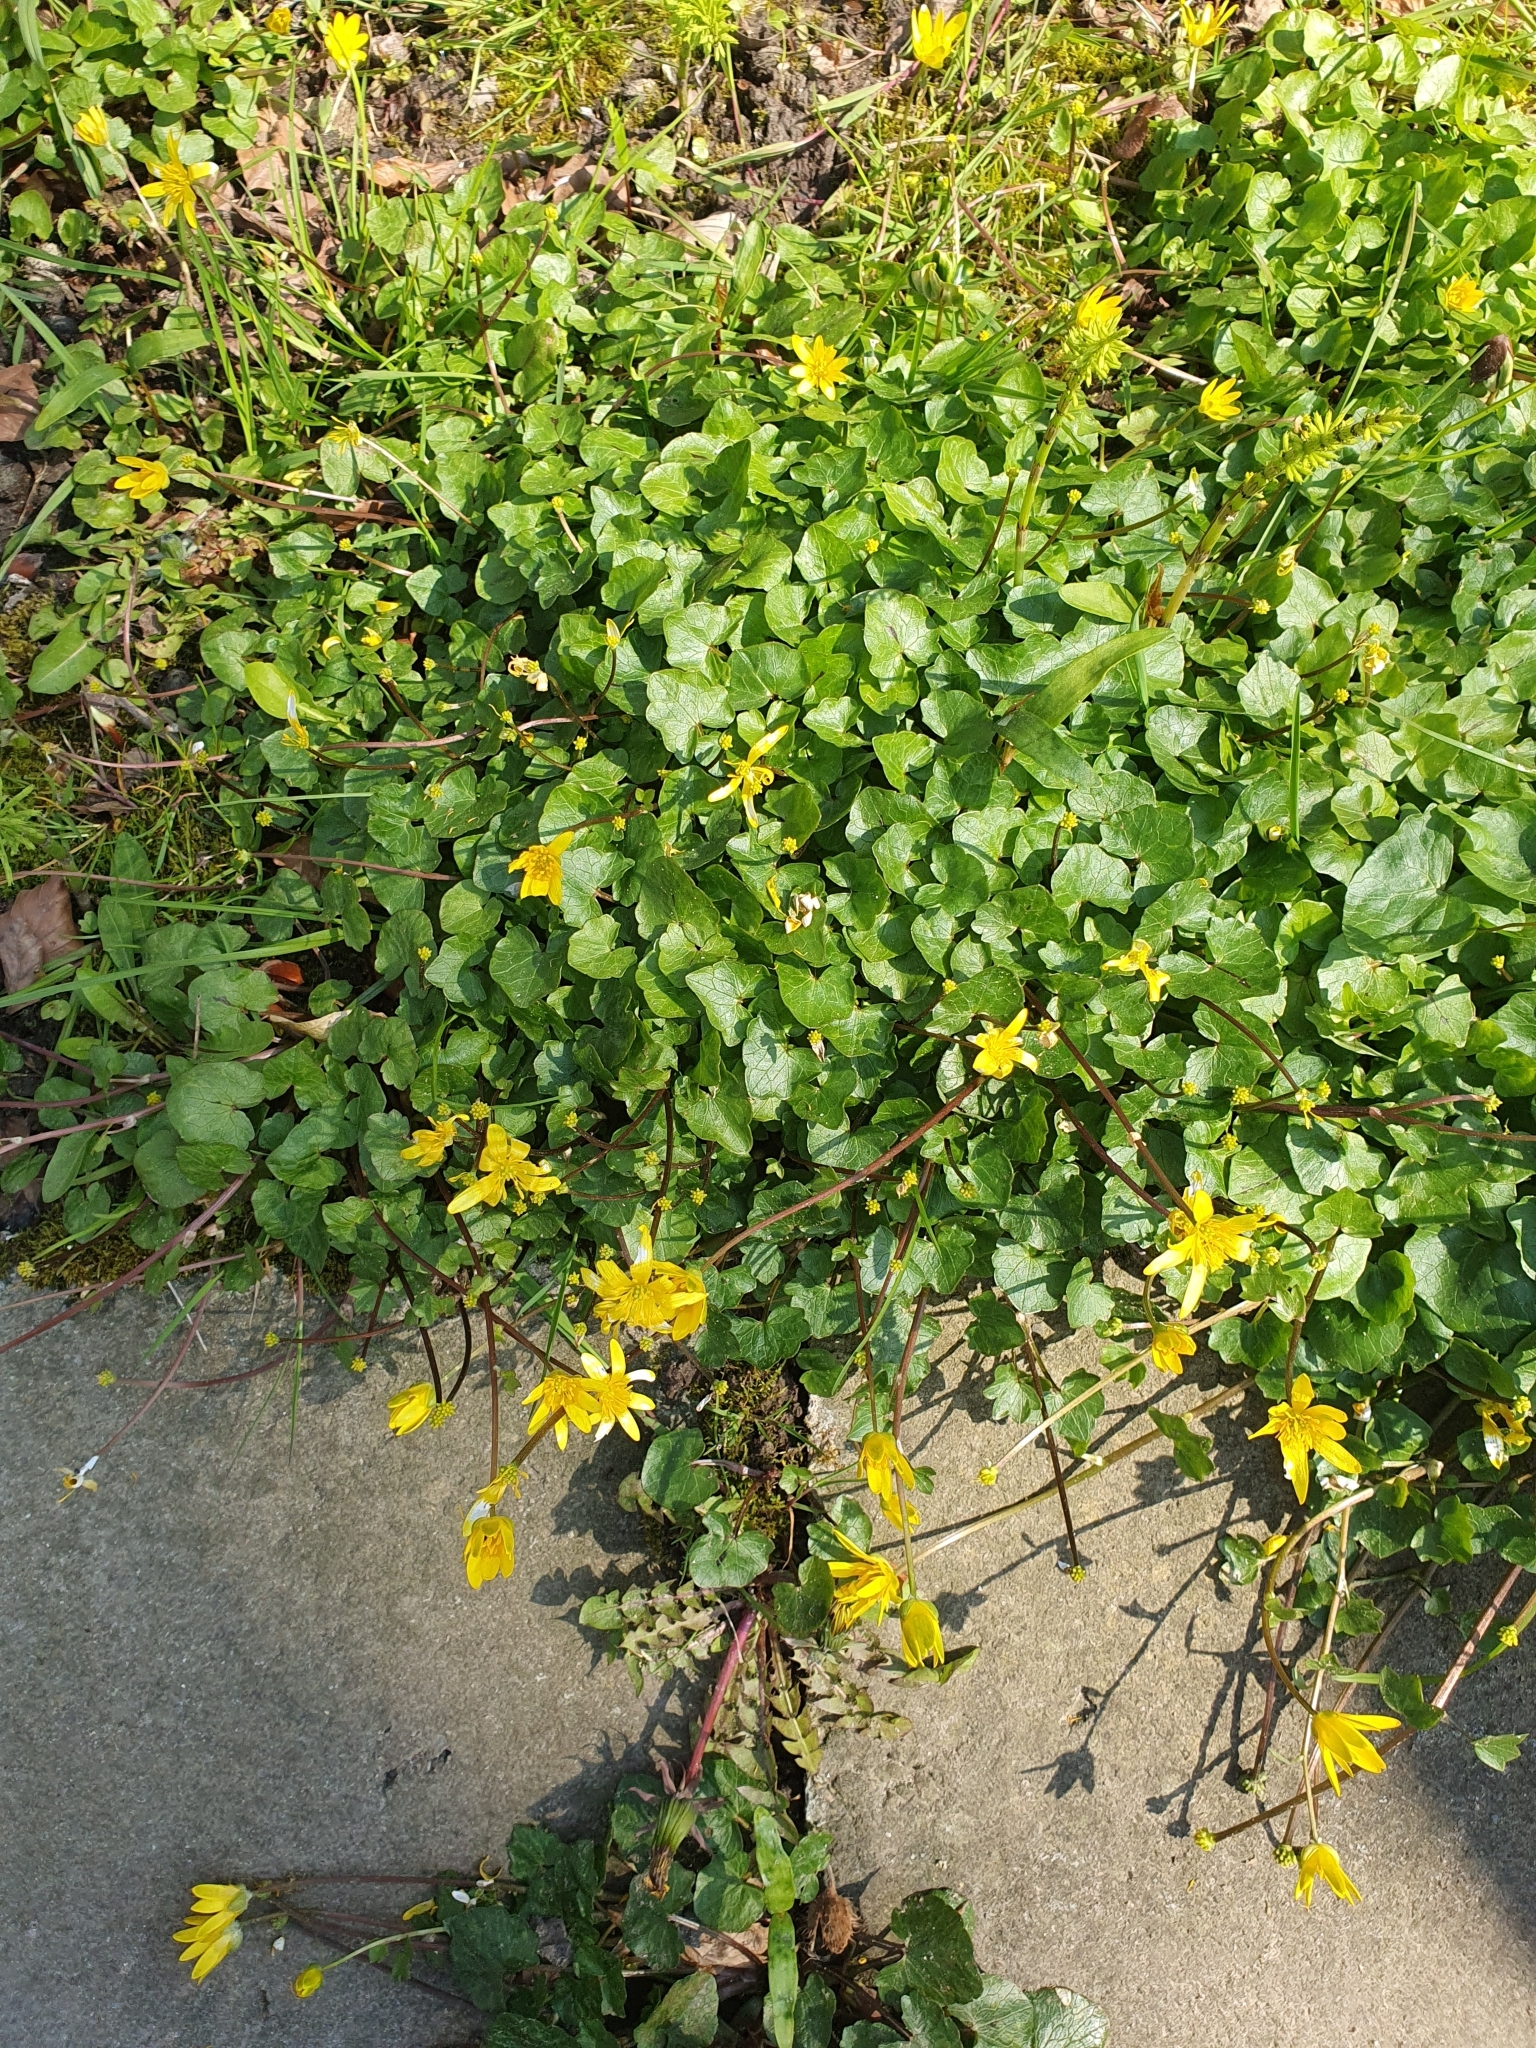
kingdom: Plantae
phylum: Tracheophyta
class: Magnoliopsida
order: Ranunculales
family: Ranunculaceae
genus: Ficaria
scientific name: Ficaria verna
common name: Lesser celandine
